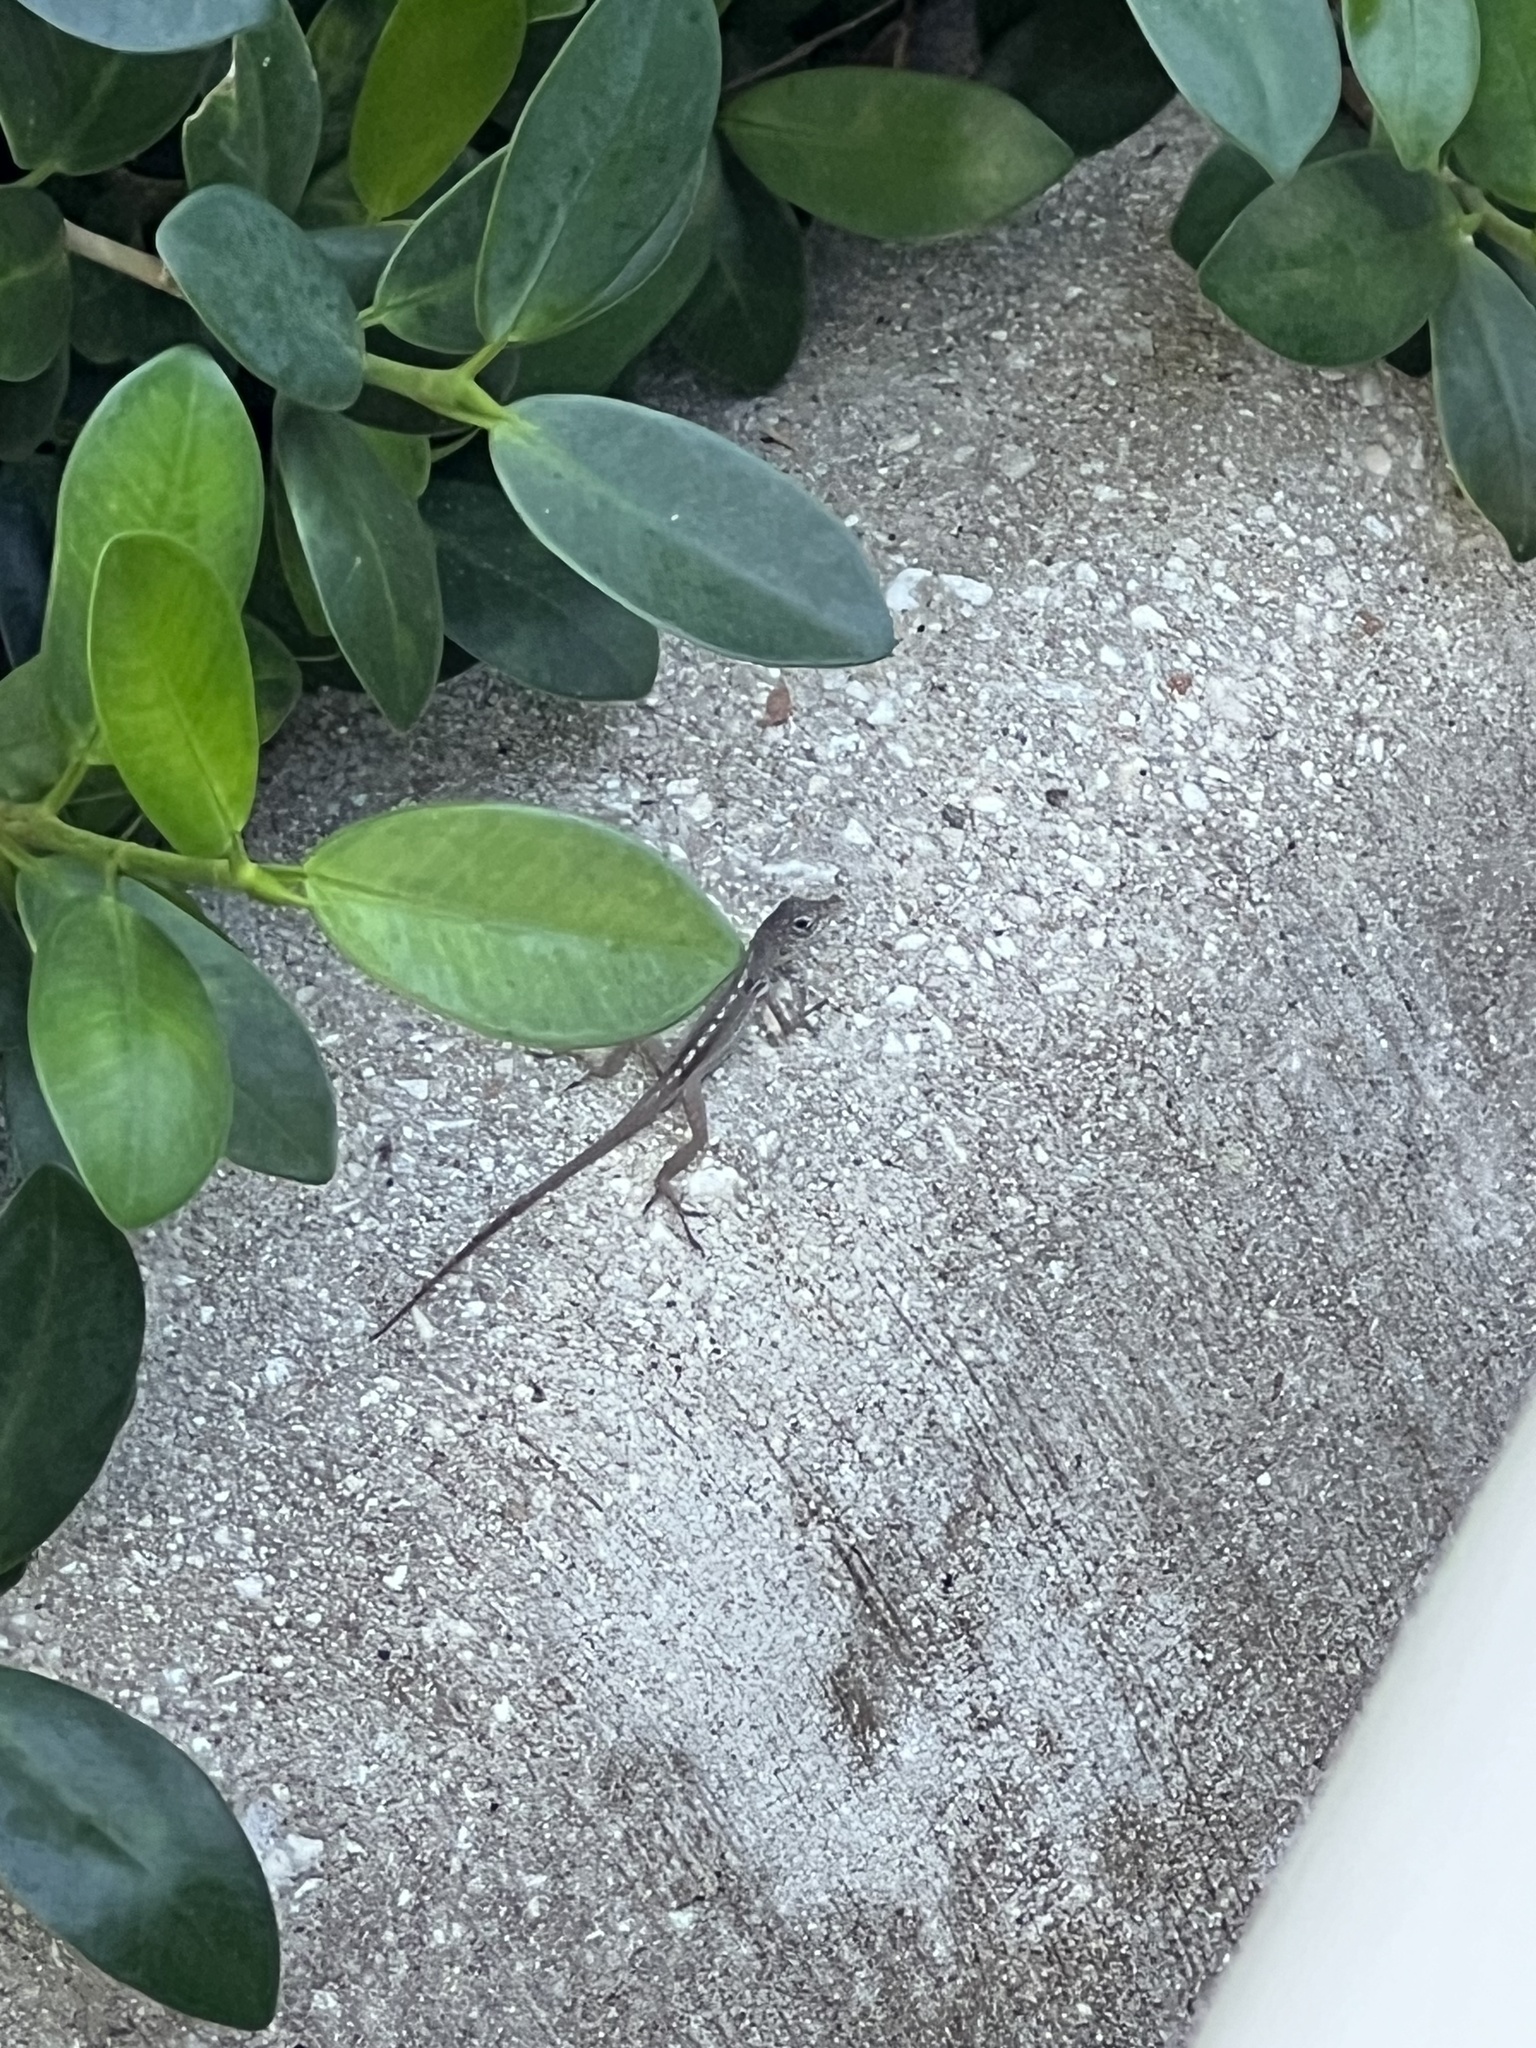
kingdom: Animalia
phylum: Chordata
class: Squamata
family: Dactyloidae
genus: Anolis
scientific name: Anolis conspersus
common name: Grand cayman anole
